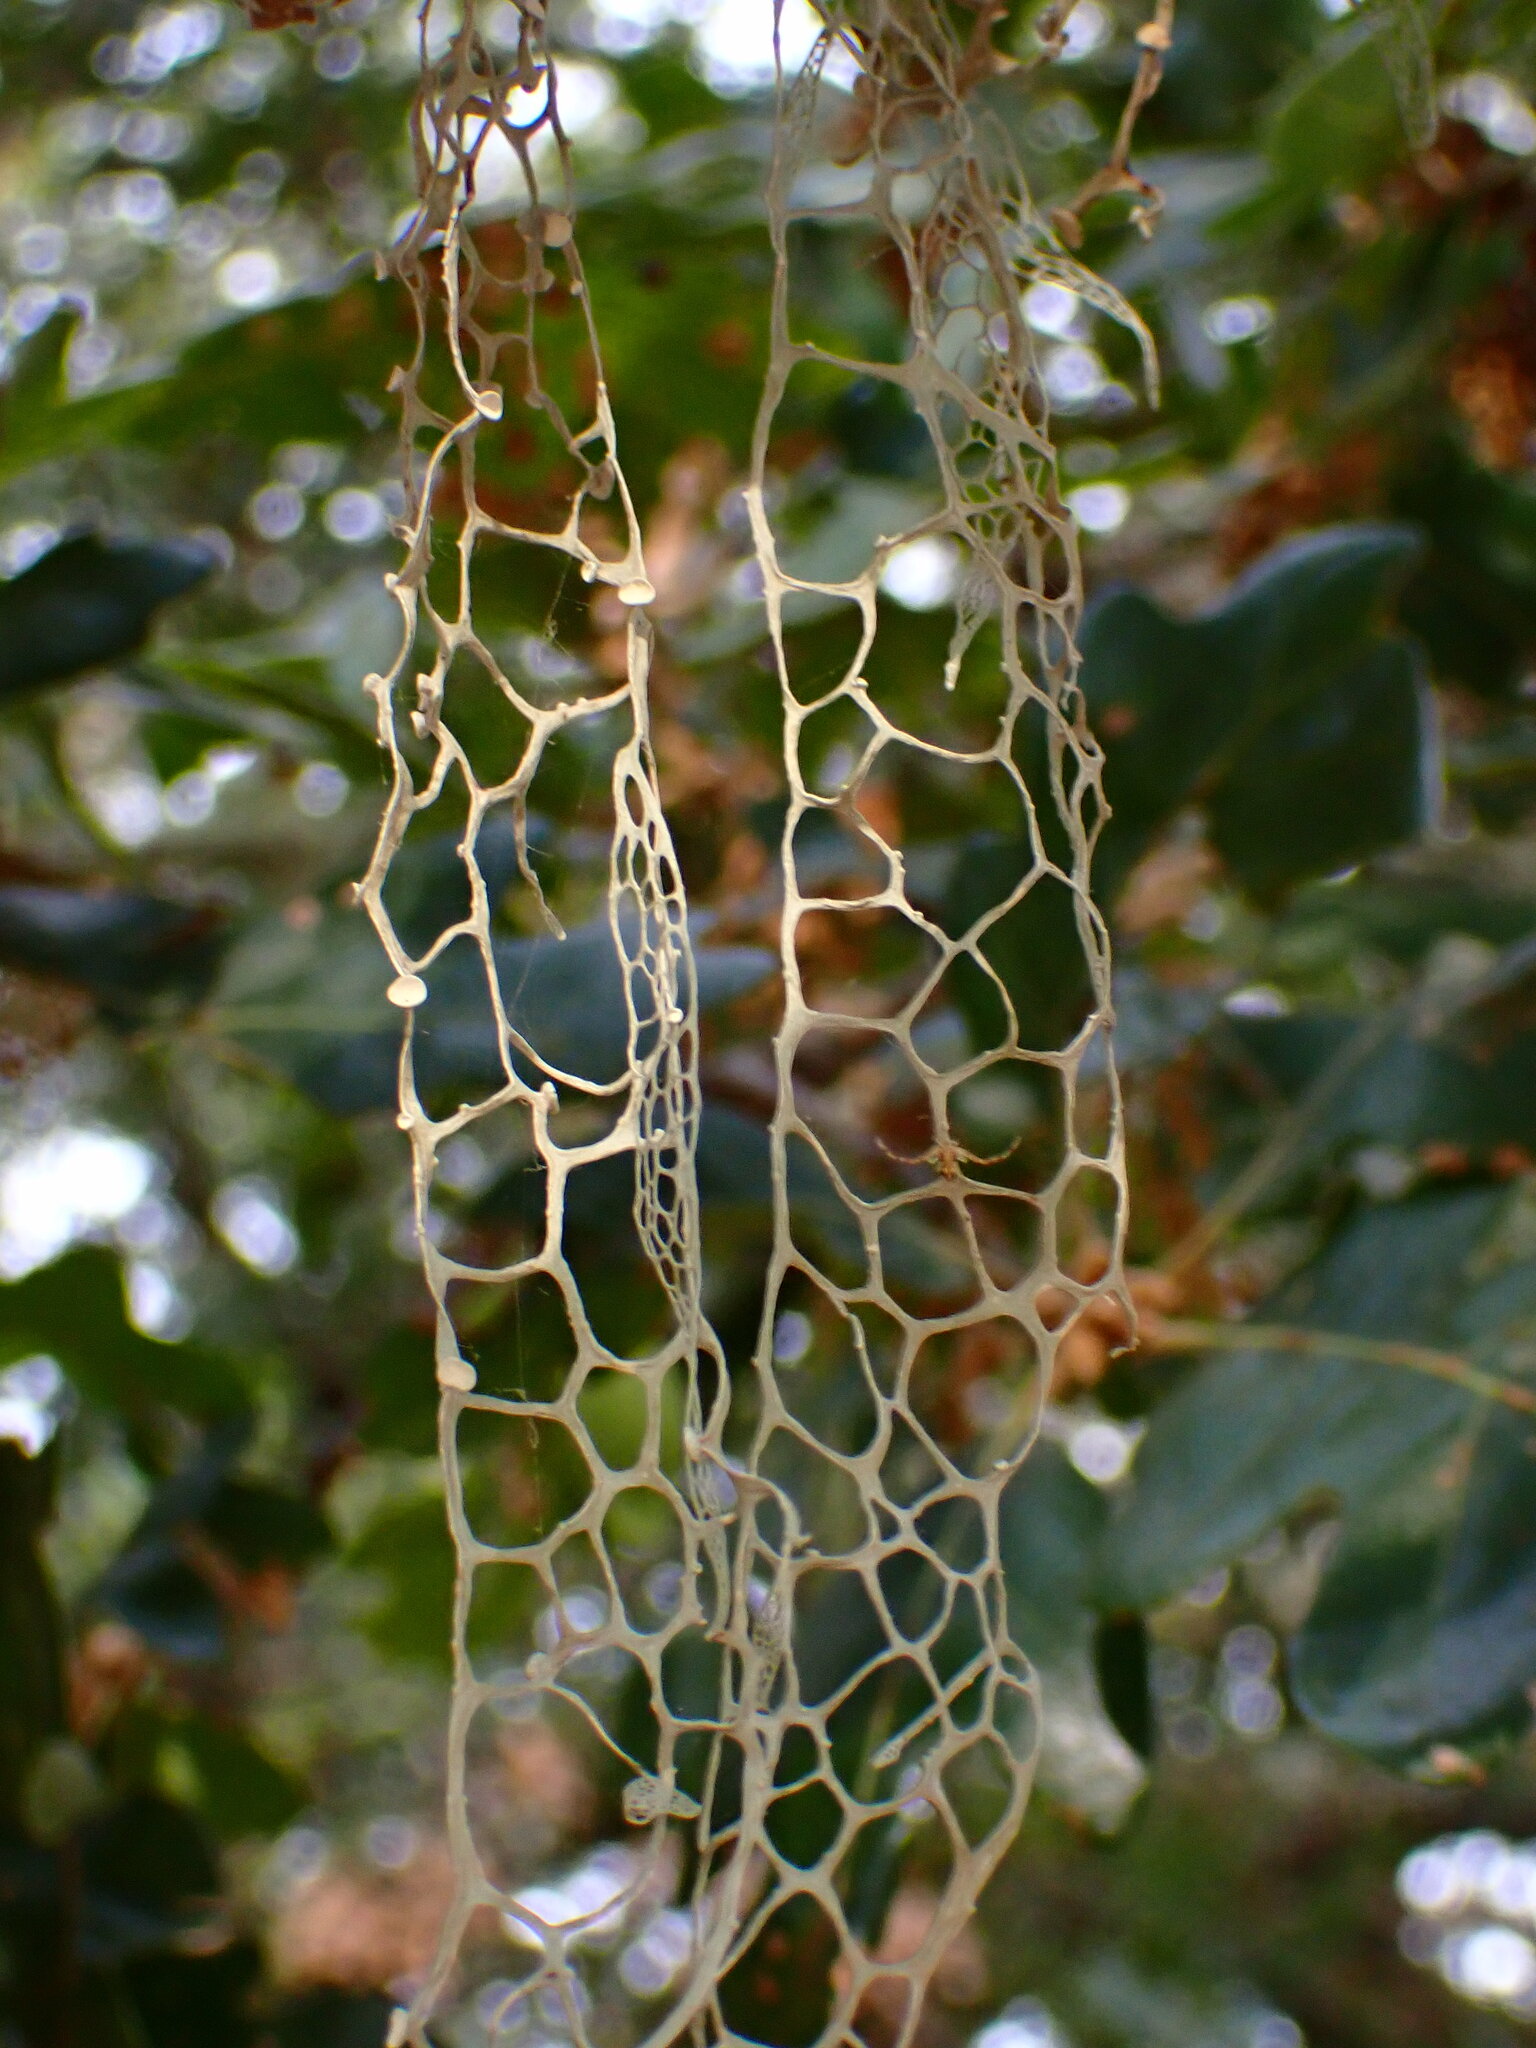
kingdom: Fungi
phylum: Ascomycota
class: Lecanoromycetes
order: Lecanorales
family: Ramalinaceae
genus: Ramalina
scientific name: Ramalina menziesii
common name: Lace lichen
